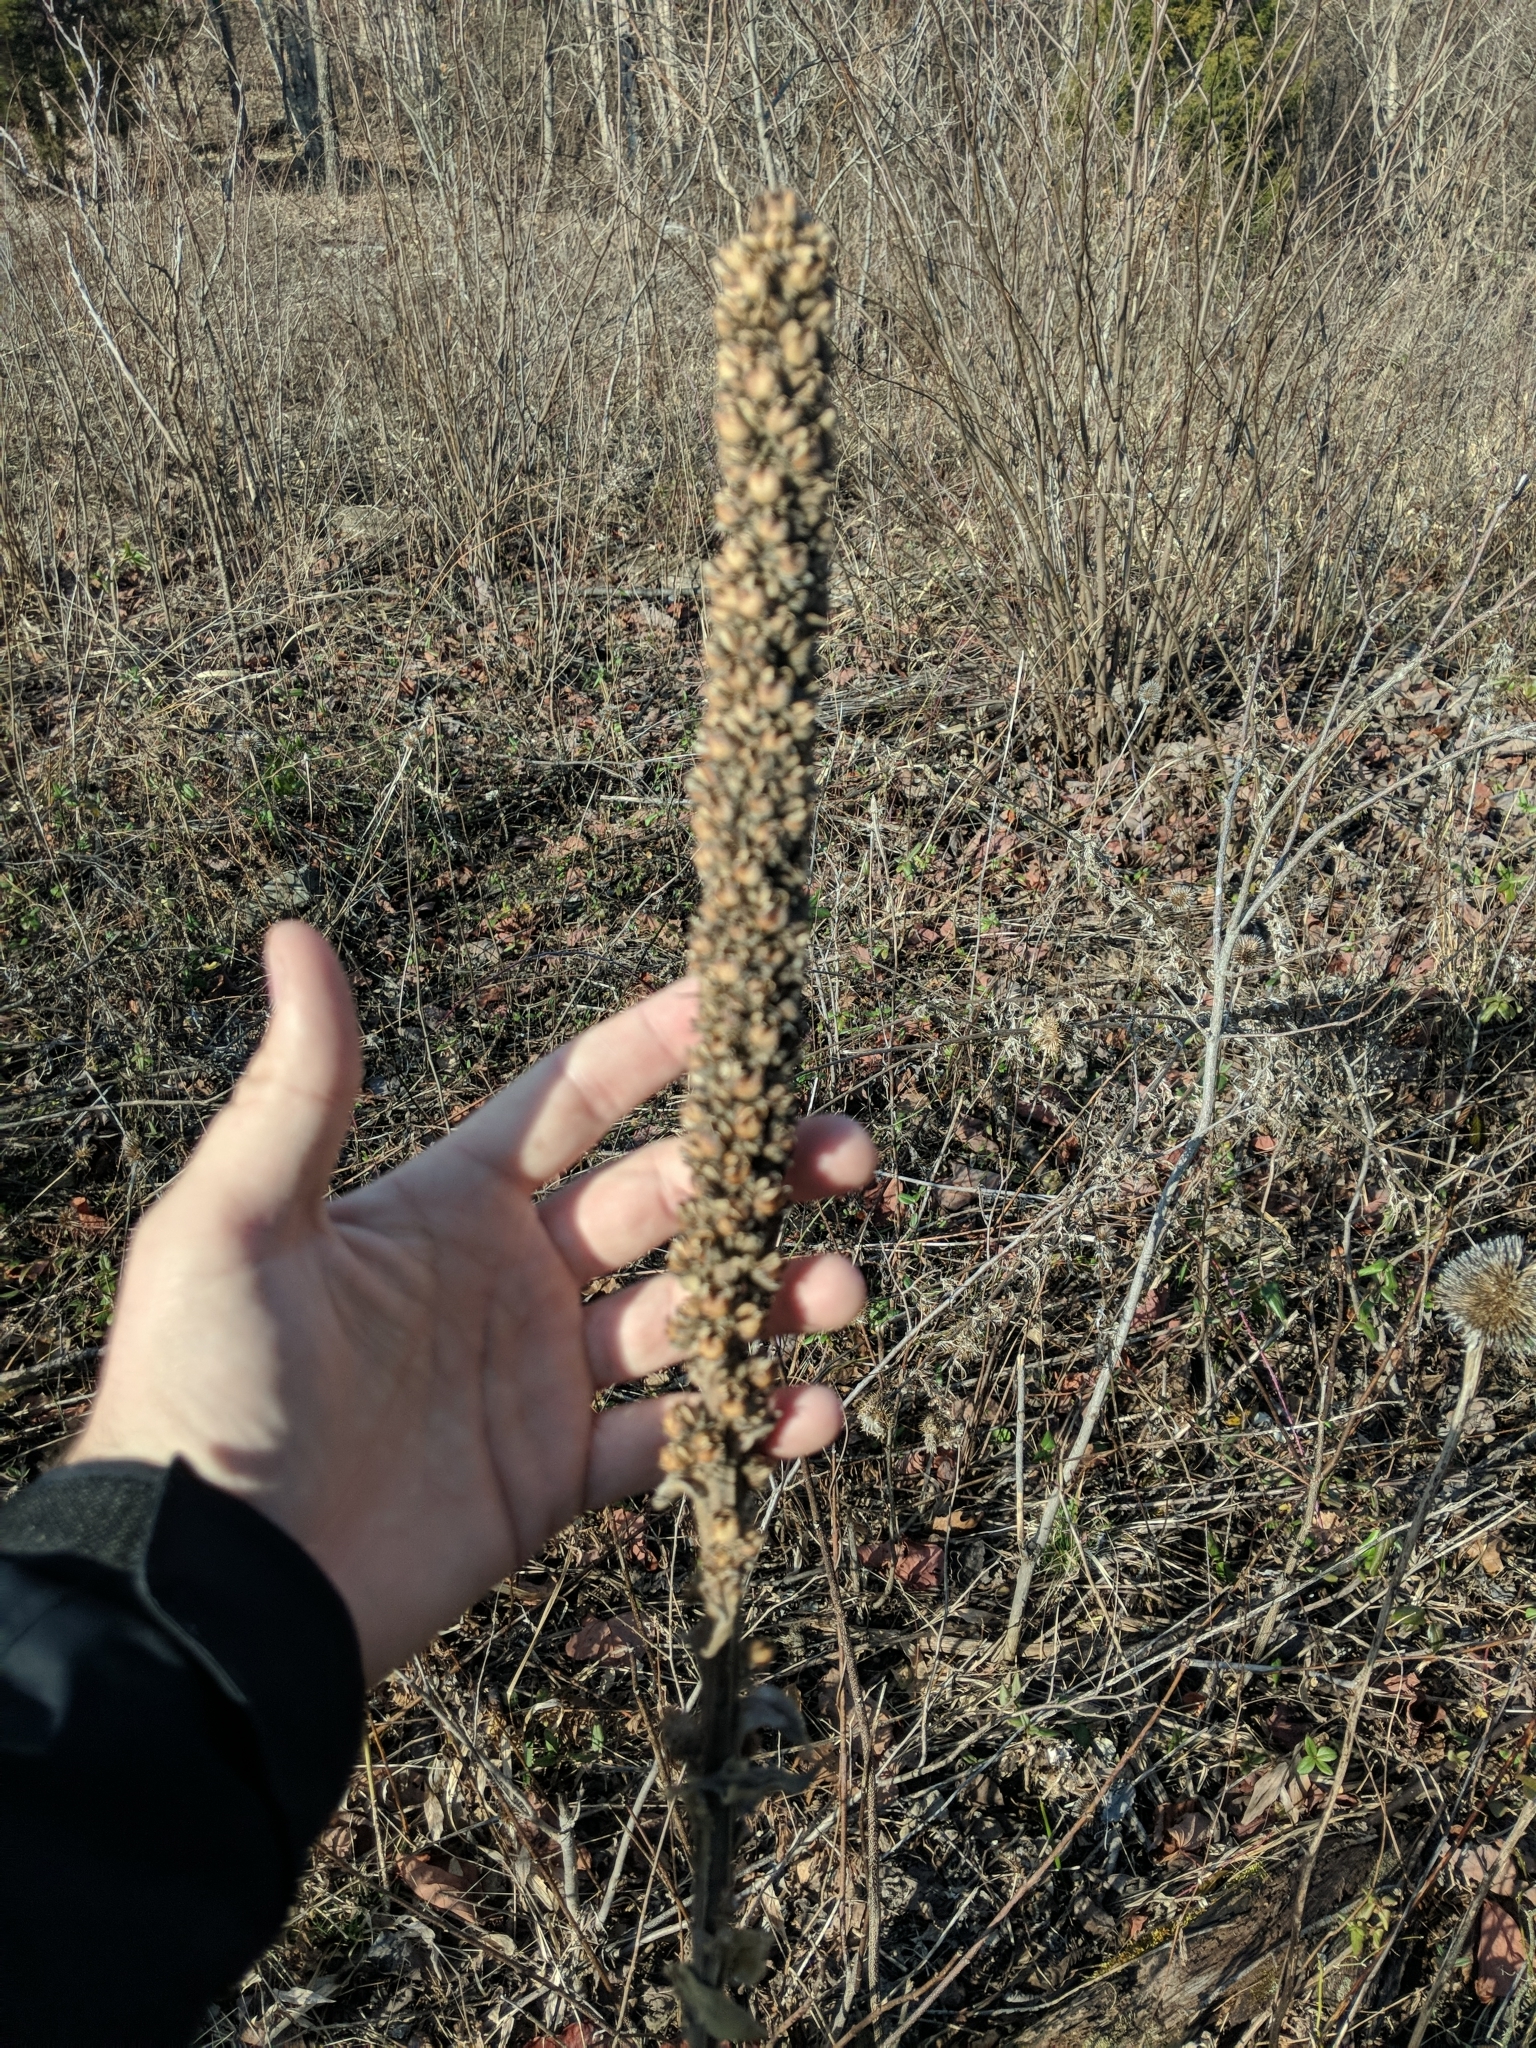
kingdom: Plantae
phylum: Tracheophyta
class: Magnoliopsida
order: Lamiales
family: Scrophulariaceae
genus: Verbascum
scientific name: Verbascum thapsus
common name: Common mullein
